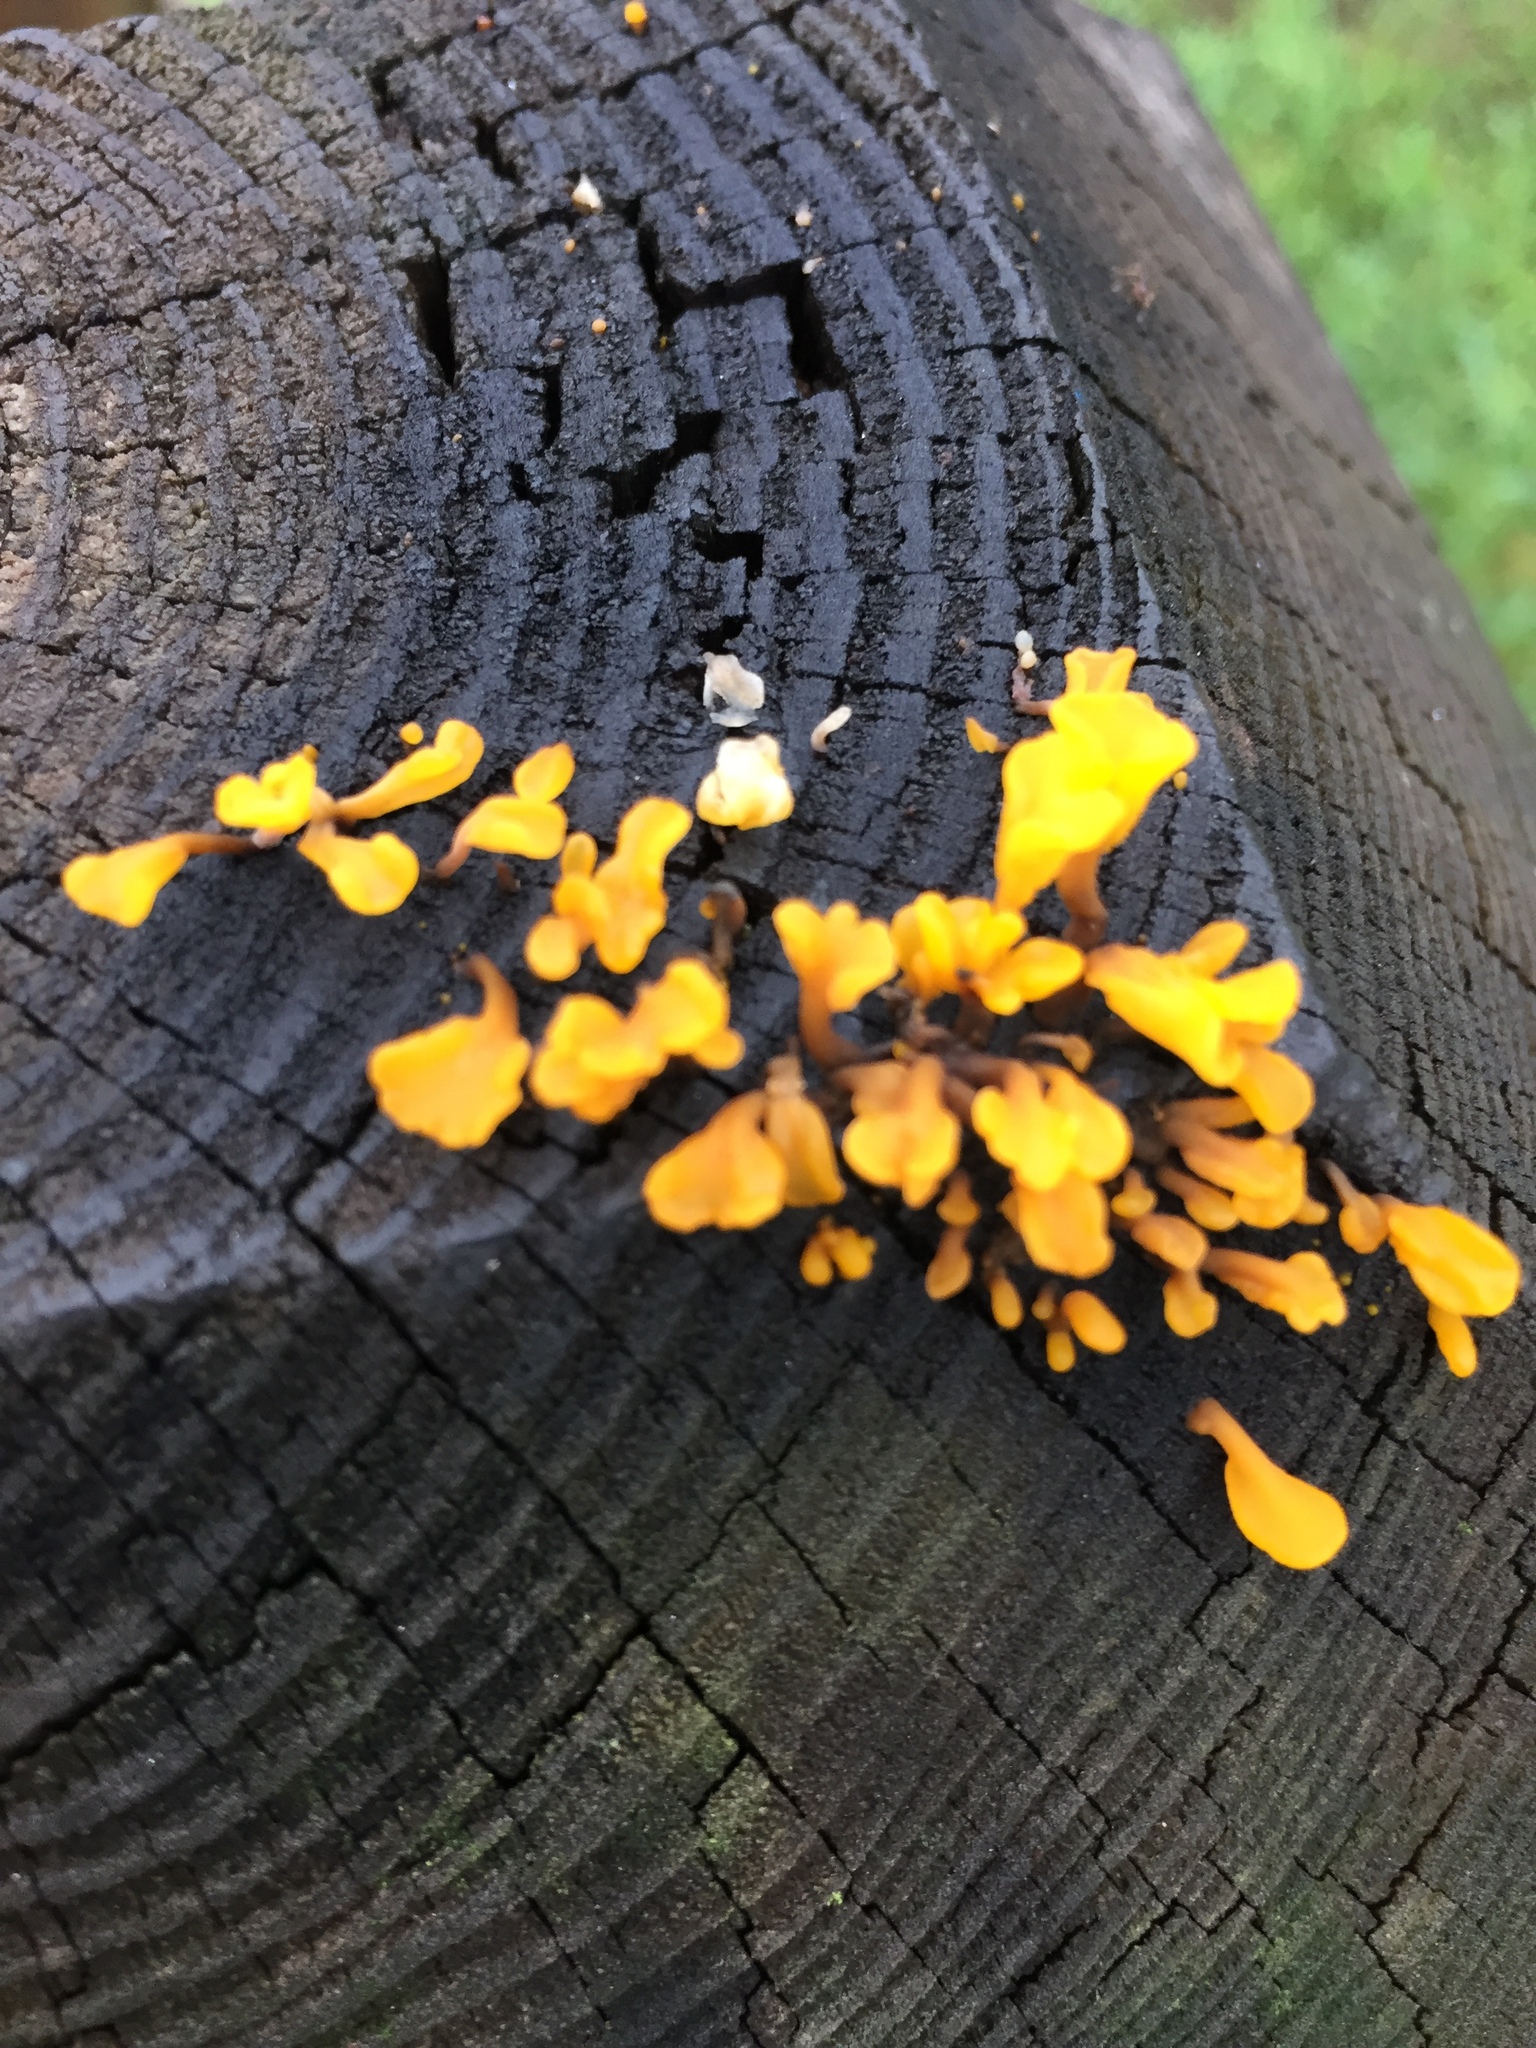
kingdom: Fungi
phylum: Basidiomycota
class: Dacrymycetes
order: Dacrymycetales
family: Dacrymycetaceae
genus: Dacrymyces
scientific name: Dacrymyces spathularius
